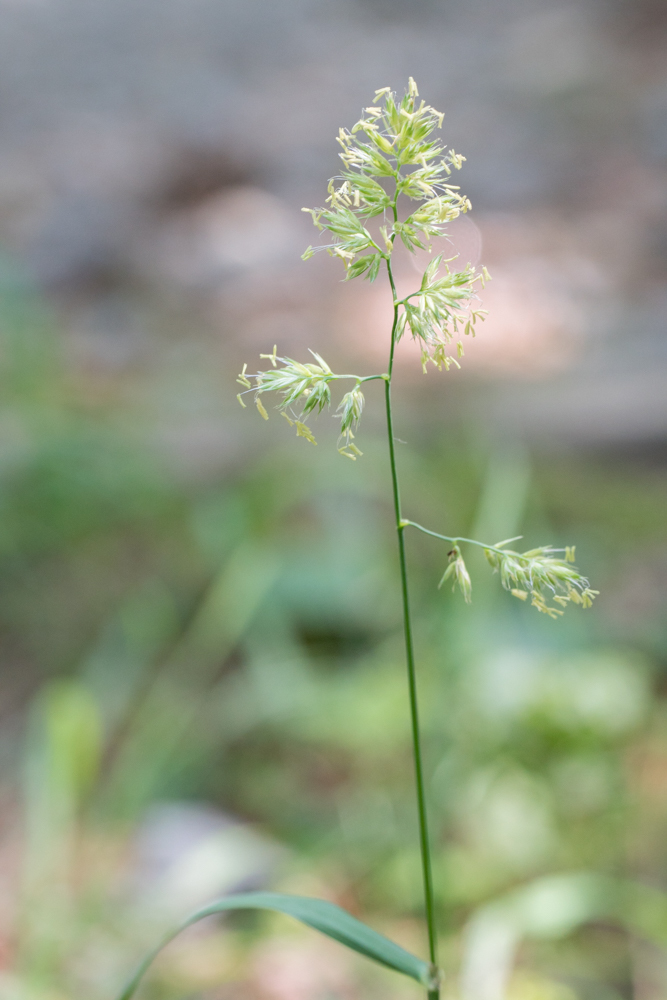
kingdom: Plantae
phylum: Tracheophyta
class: Liliopsida
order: Poales
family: Poaceae
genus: Dactylis
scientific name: Dactylis glomerata
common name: Orchardgrass
